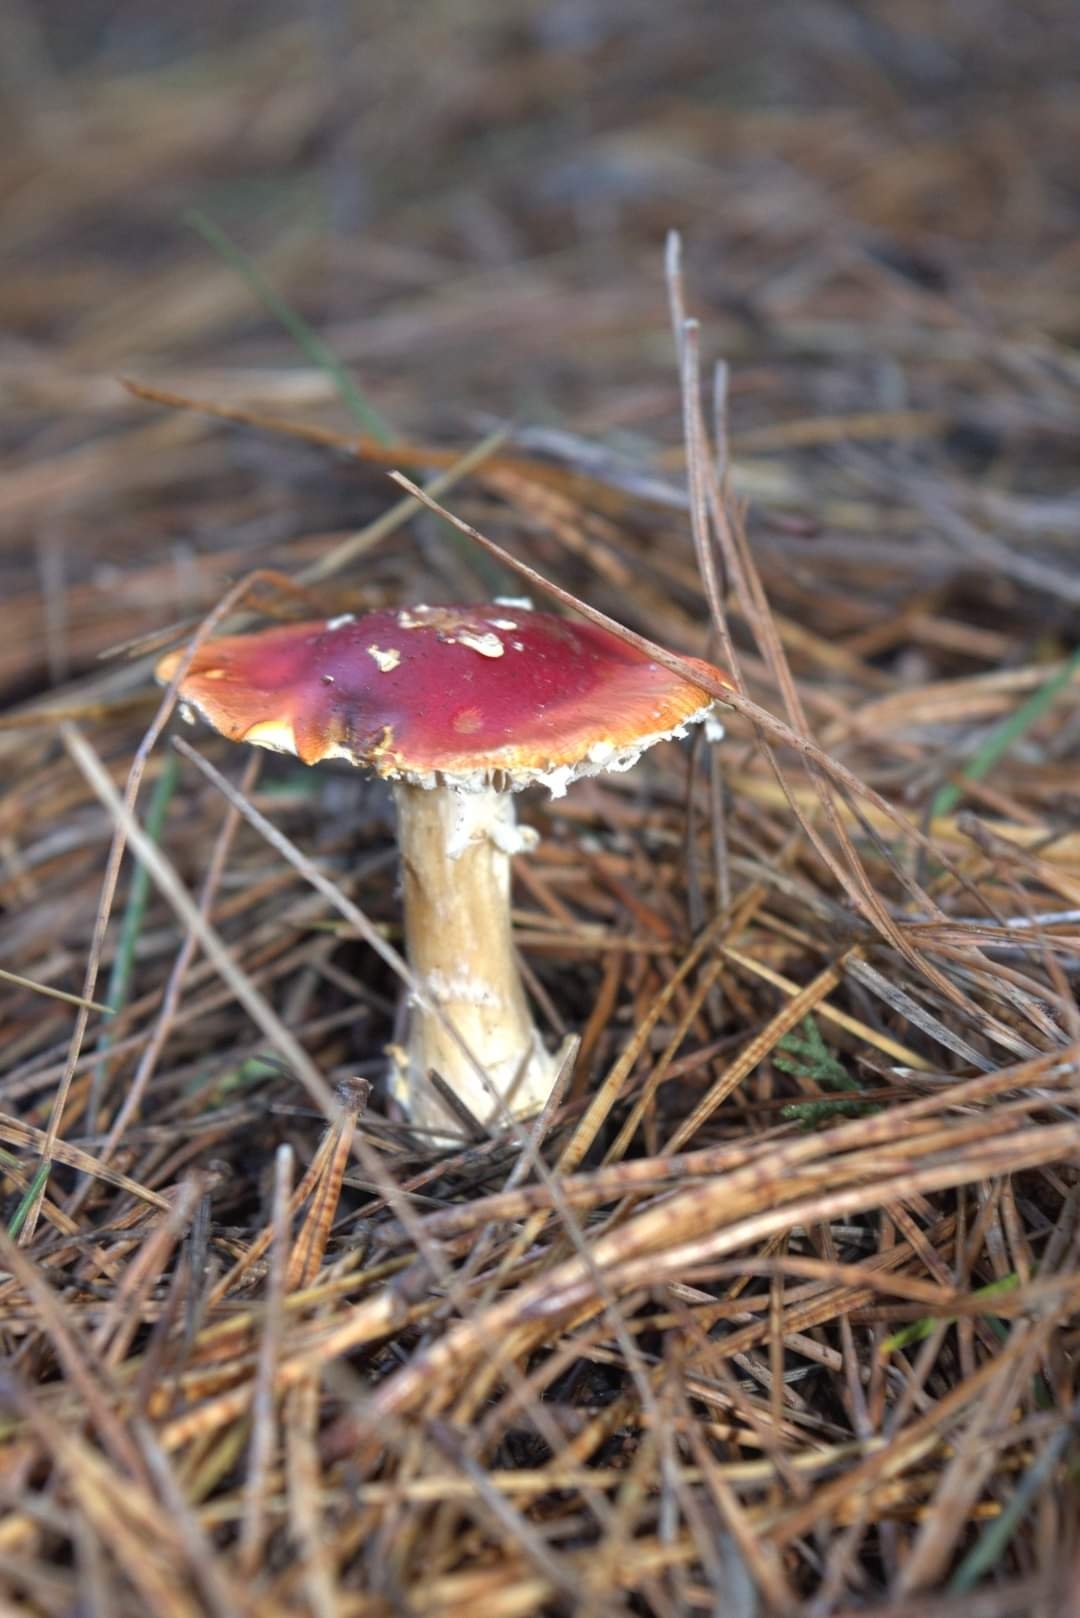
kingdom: Fungi
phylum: Basidiomycota
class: Agaricomycetes
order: Agaricales
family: Amanitaceae
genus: Amanita
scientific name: Amanita muscaria
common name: Fly agaric
